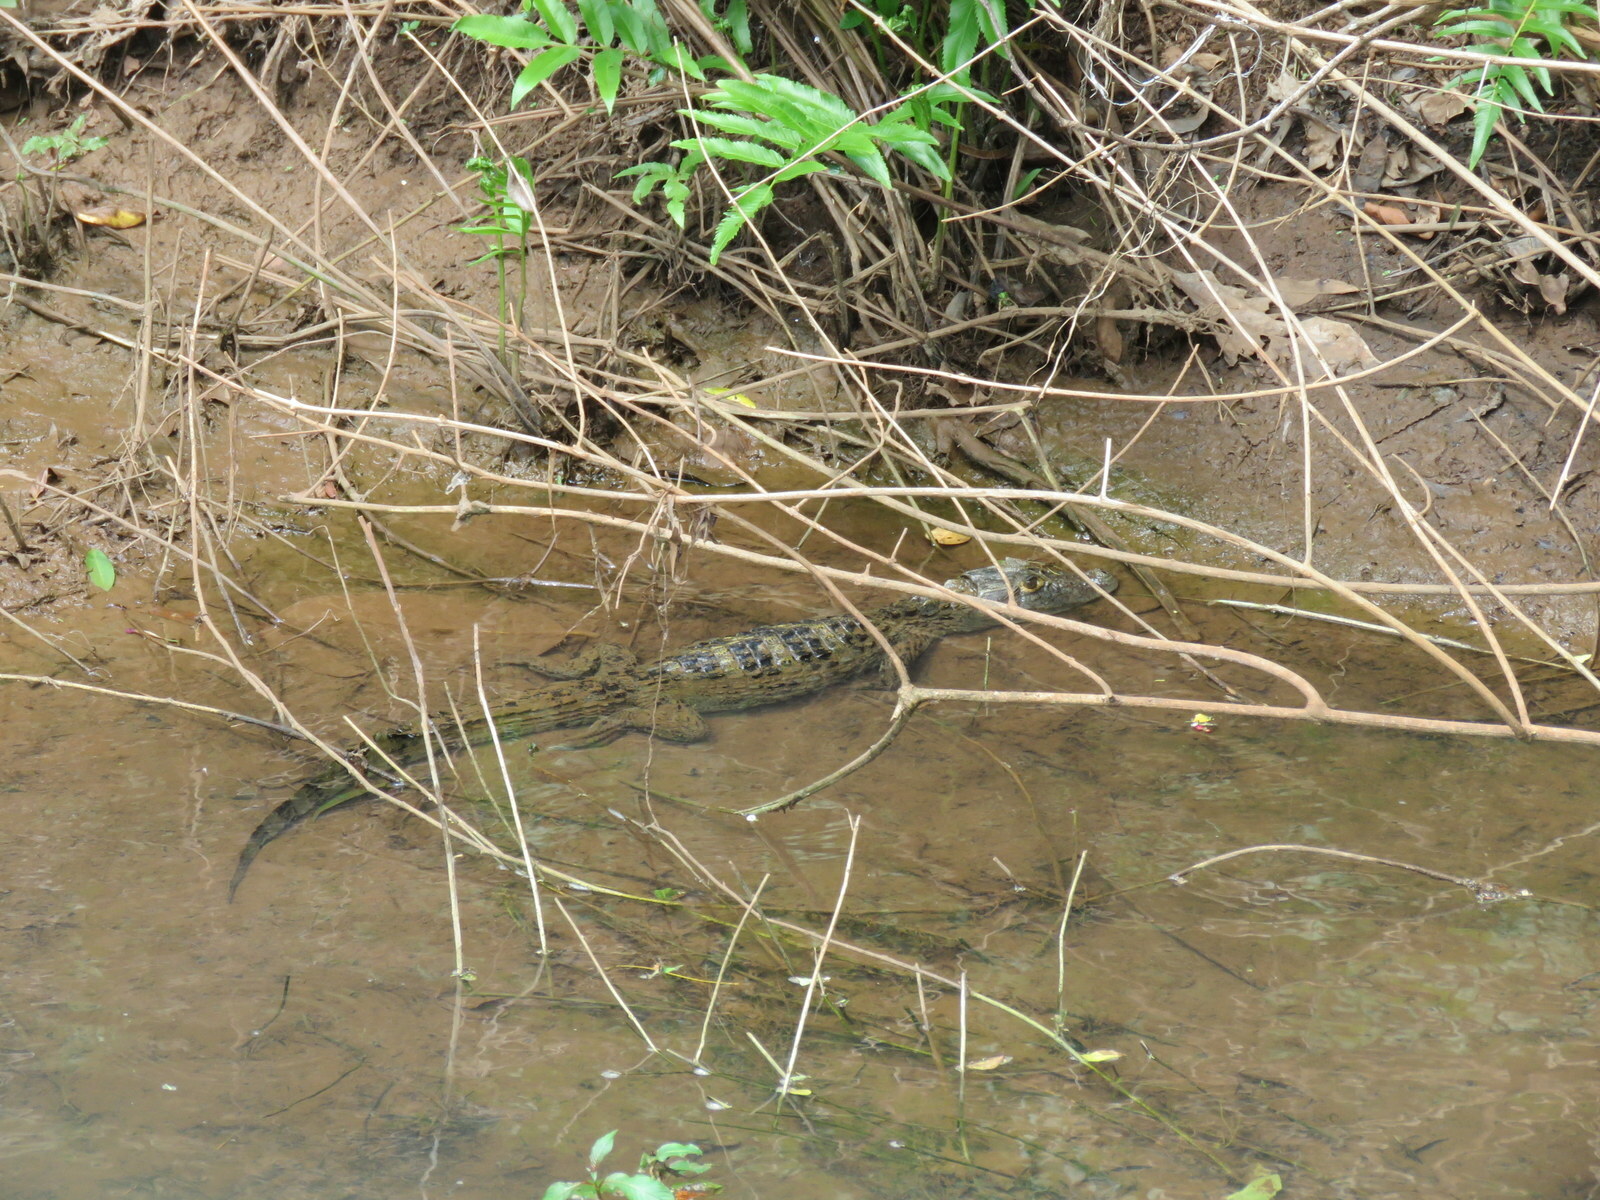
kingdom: Animalia
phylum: Chordata
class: Crocodylia
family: Alligatoridae
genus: Caiman
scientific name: Caiman latirostris
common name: Broad-snouted caiman
